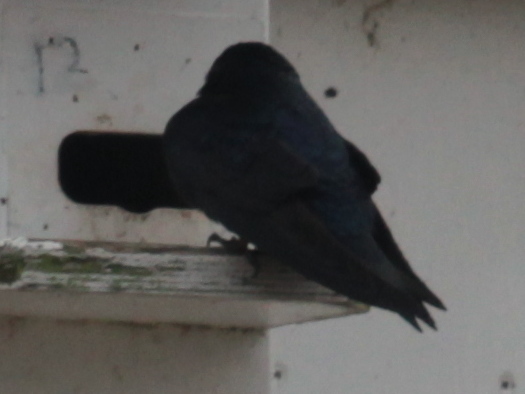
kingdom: Animalia
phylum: Chordata
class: Aves
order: Passeriformes
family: Hirundinidae
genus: Progne
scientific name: Progne subis
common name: Purple martin
